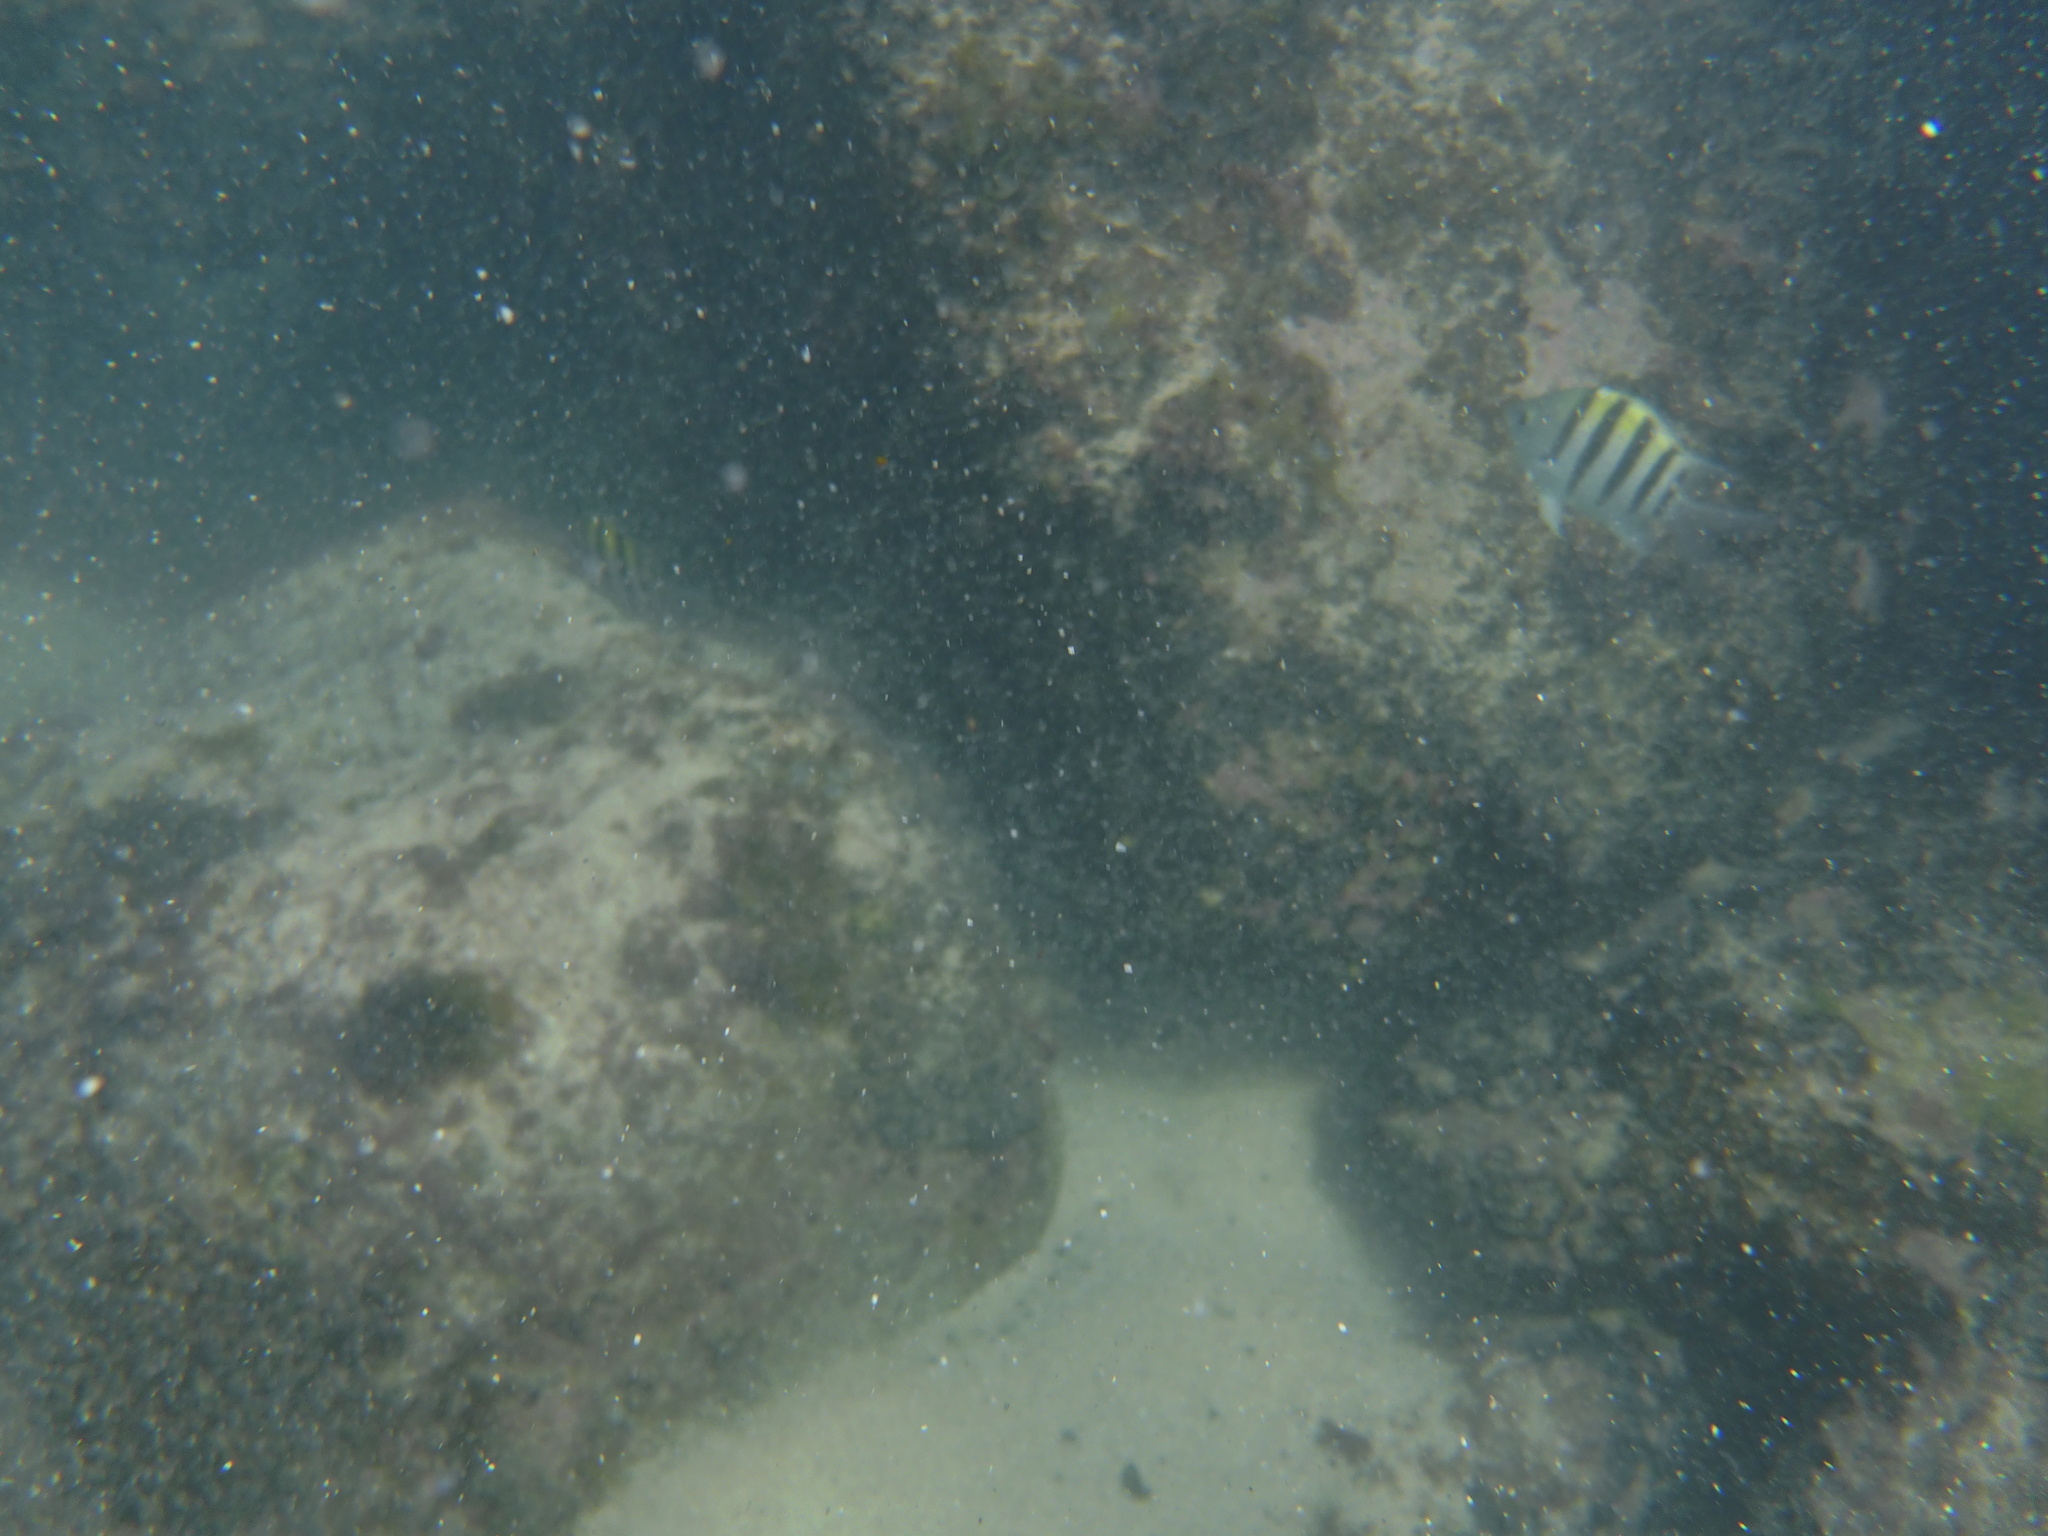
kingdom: Animalia
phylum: Chordata
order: Perciformes
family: Pomacentridae
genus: Abudefduf
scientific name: Abudefduf saxatilis
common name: Sergeant major
